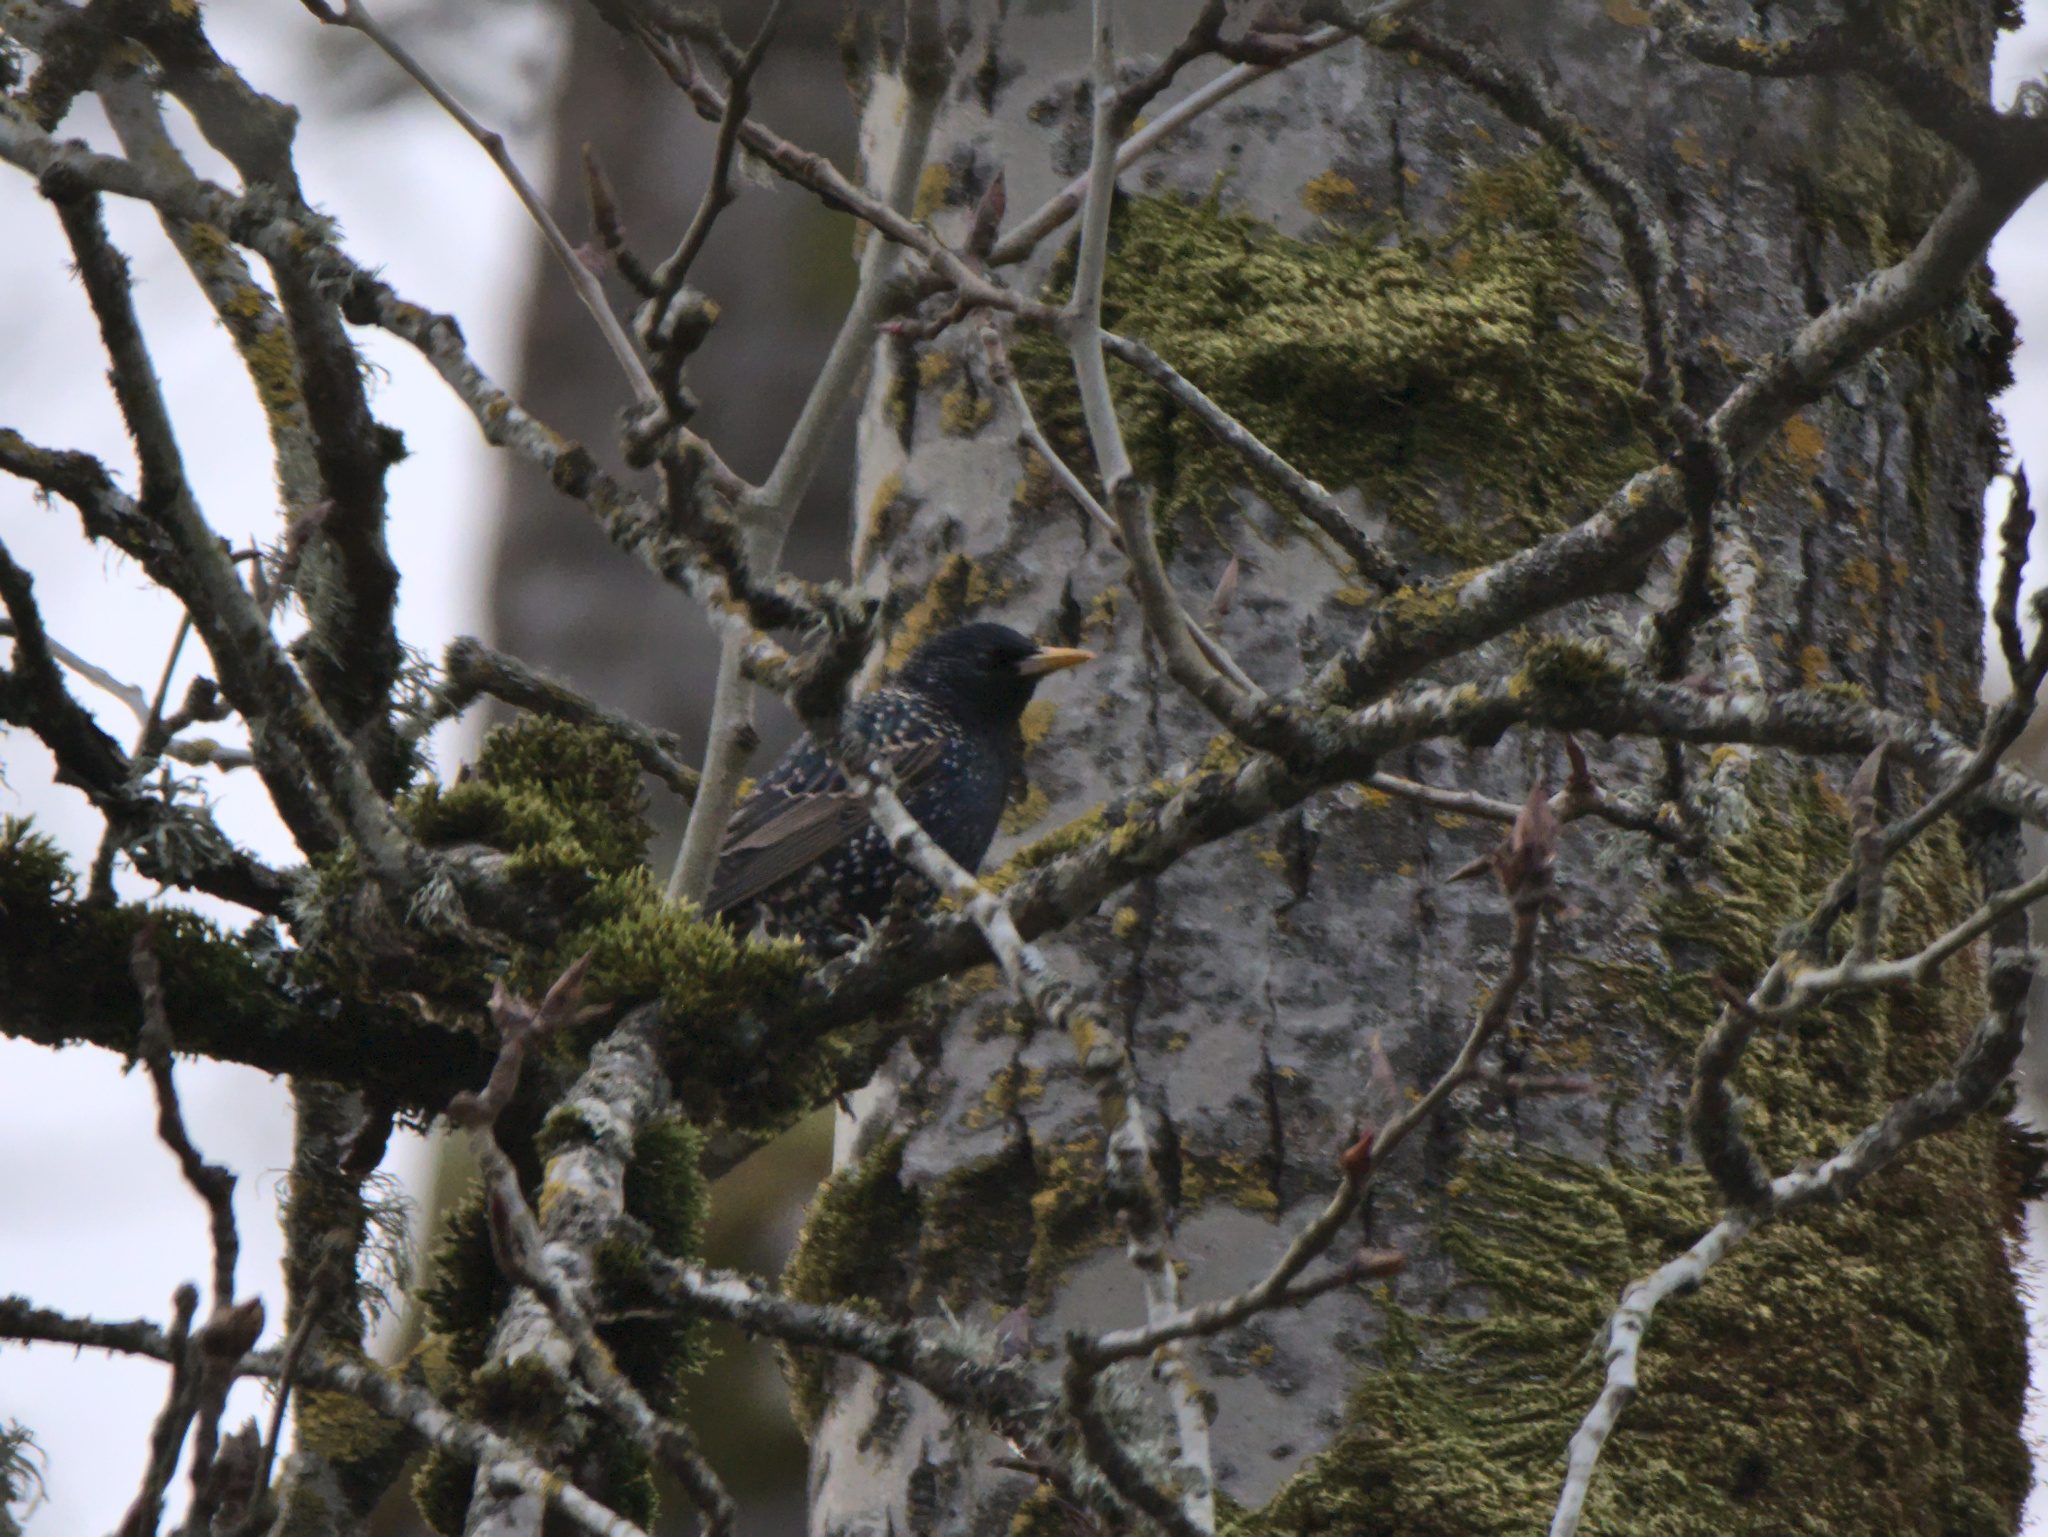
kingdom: Animalia
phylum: Chordata
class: Aves
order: Passeriformes
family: Sturnidae
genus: Sturnus
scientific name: Sturnus vulgaris
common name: Common starling
